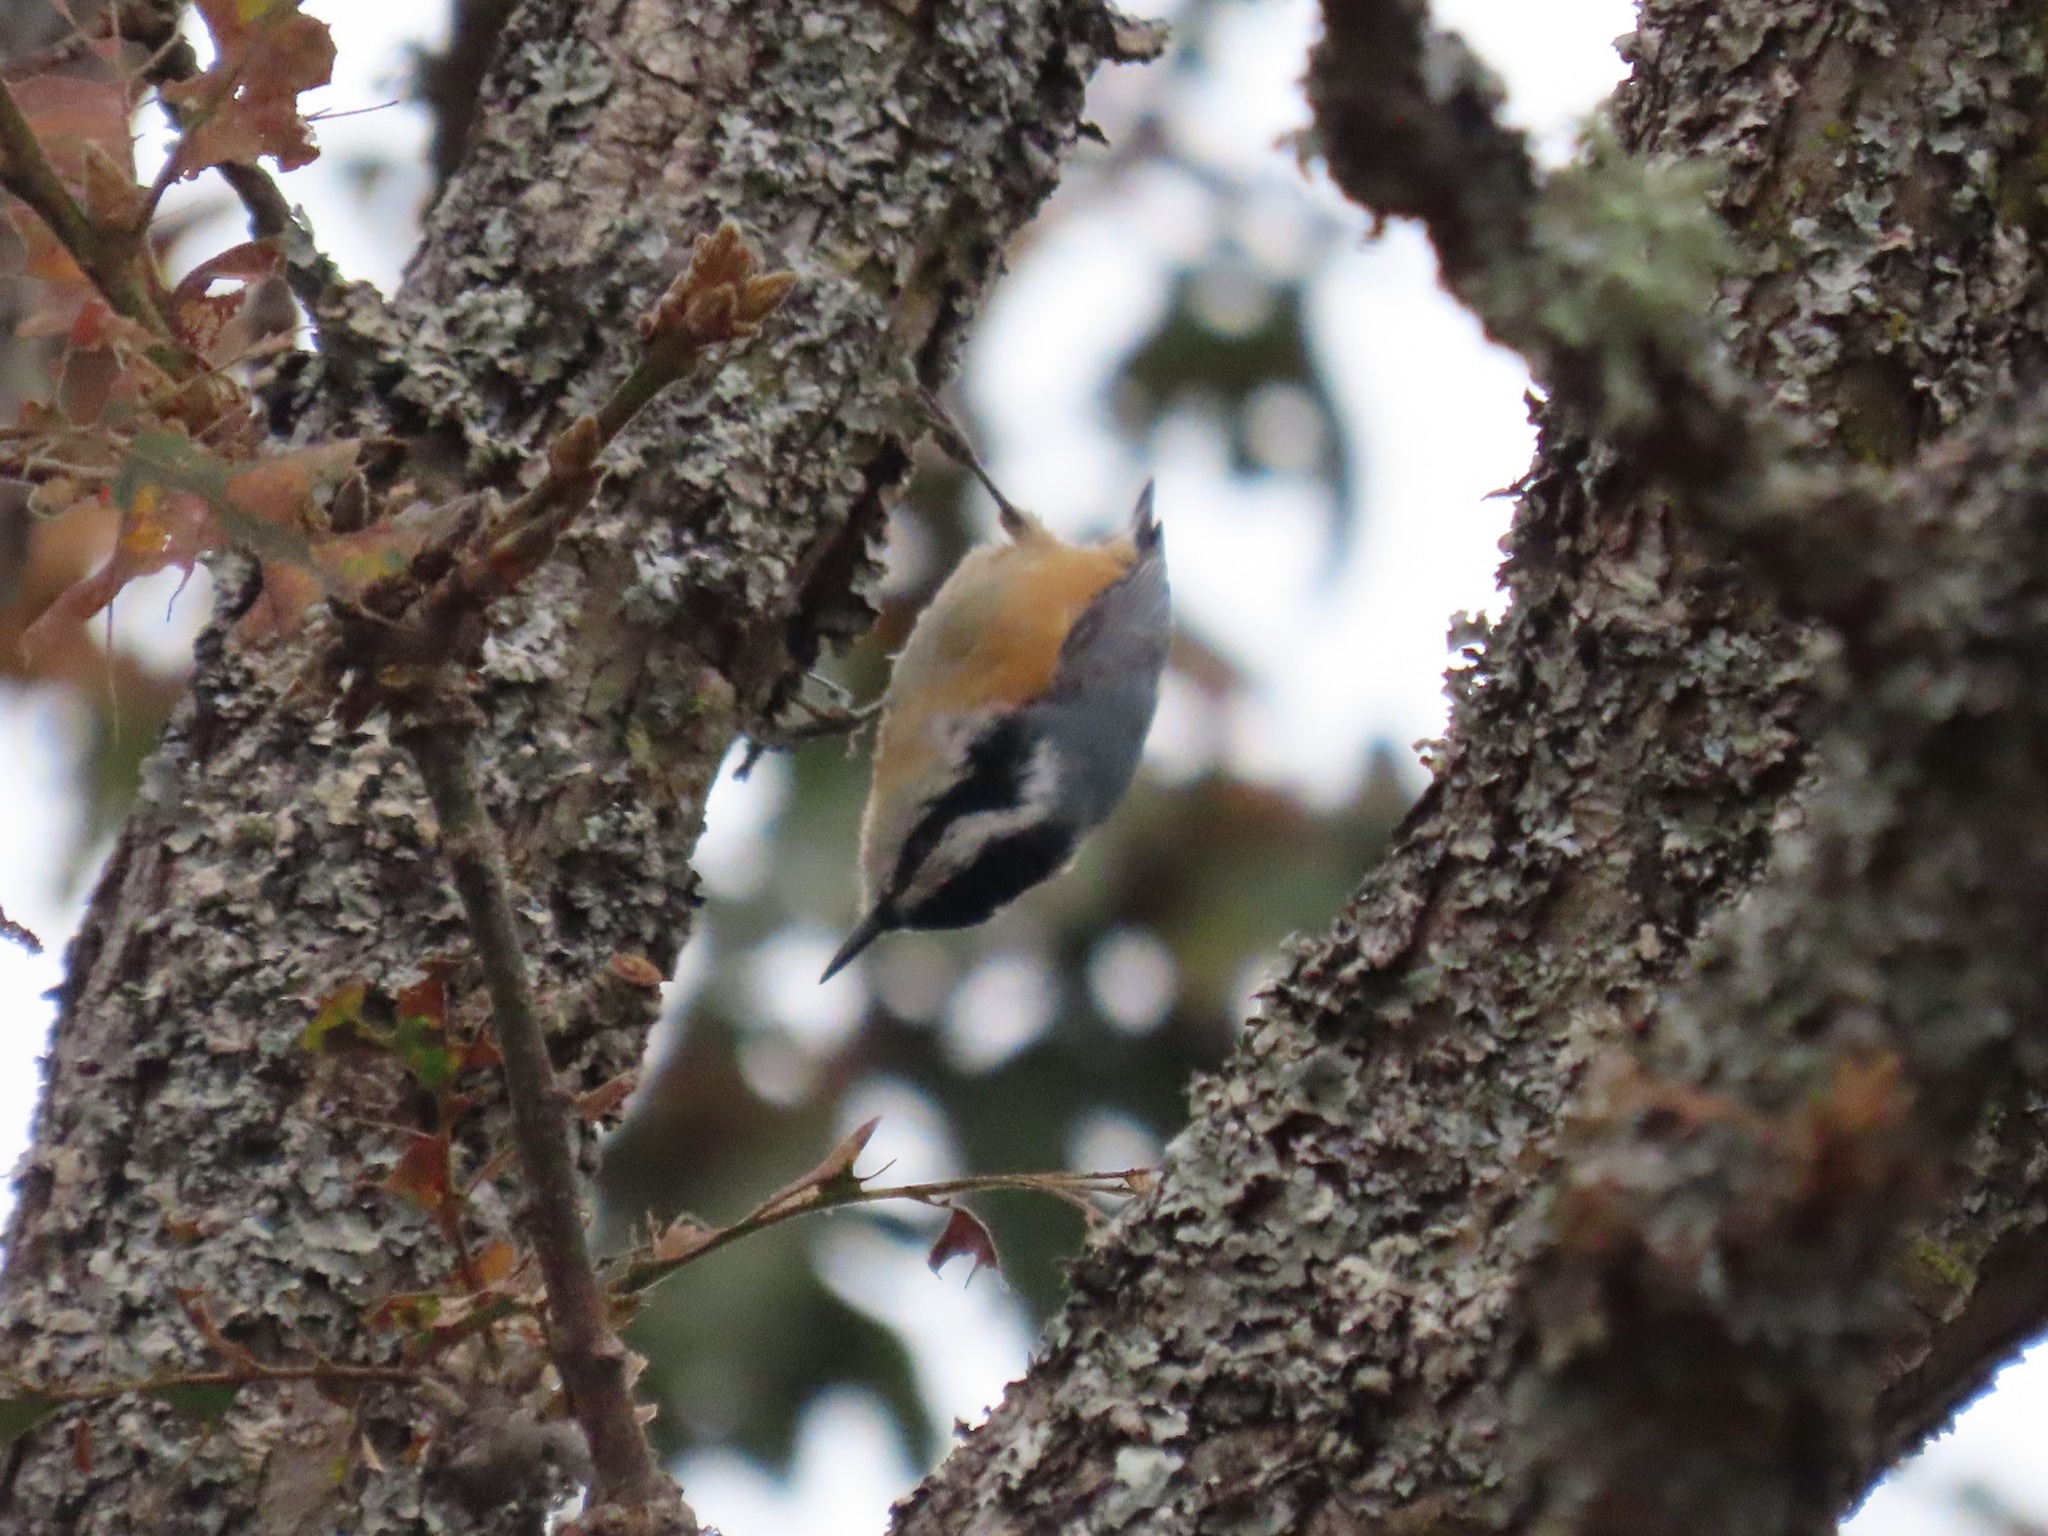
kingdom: Animalia
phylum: Chordata
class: Aves
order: Passeriformes
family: Sittidae
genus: Sitta
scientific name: Sitta canadensis
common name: Red-breasted nuthatch
